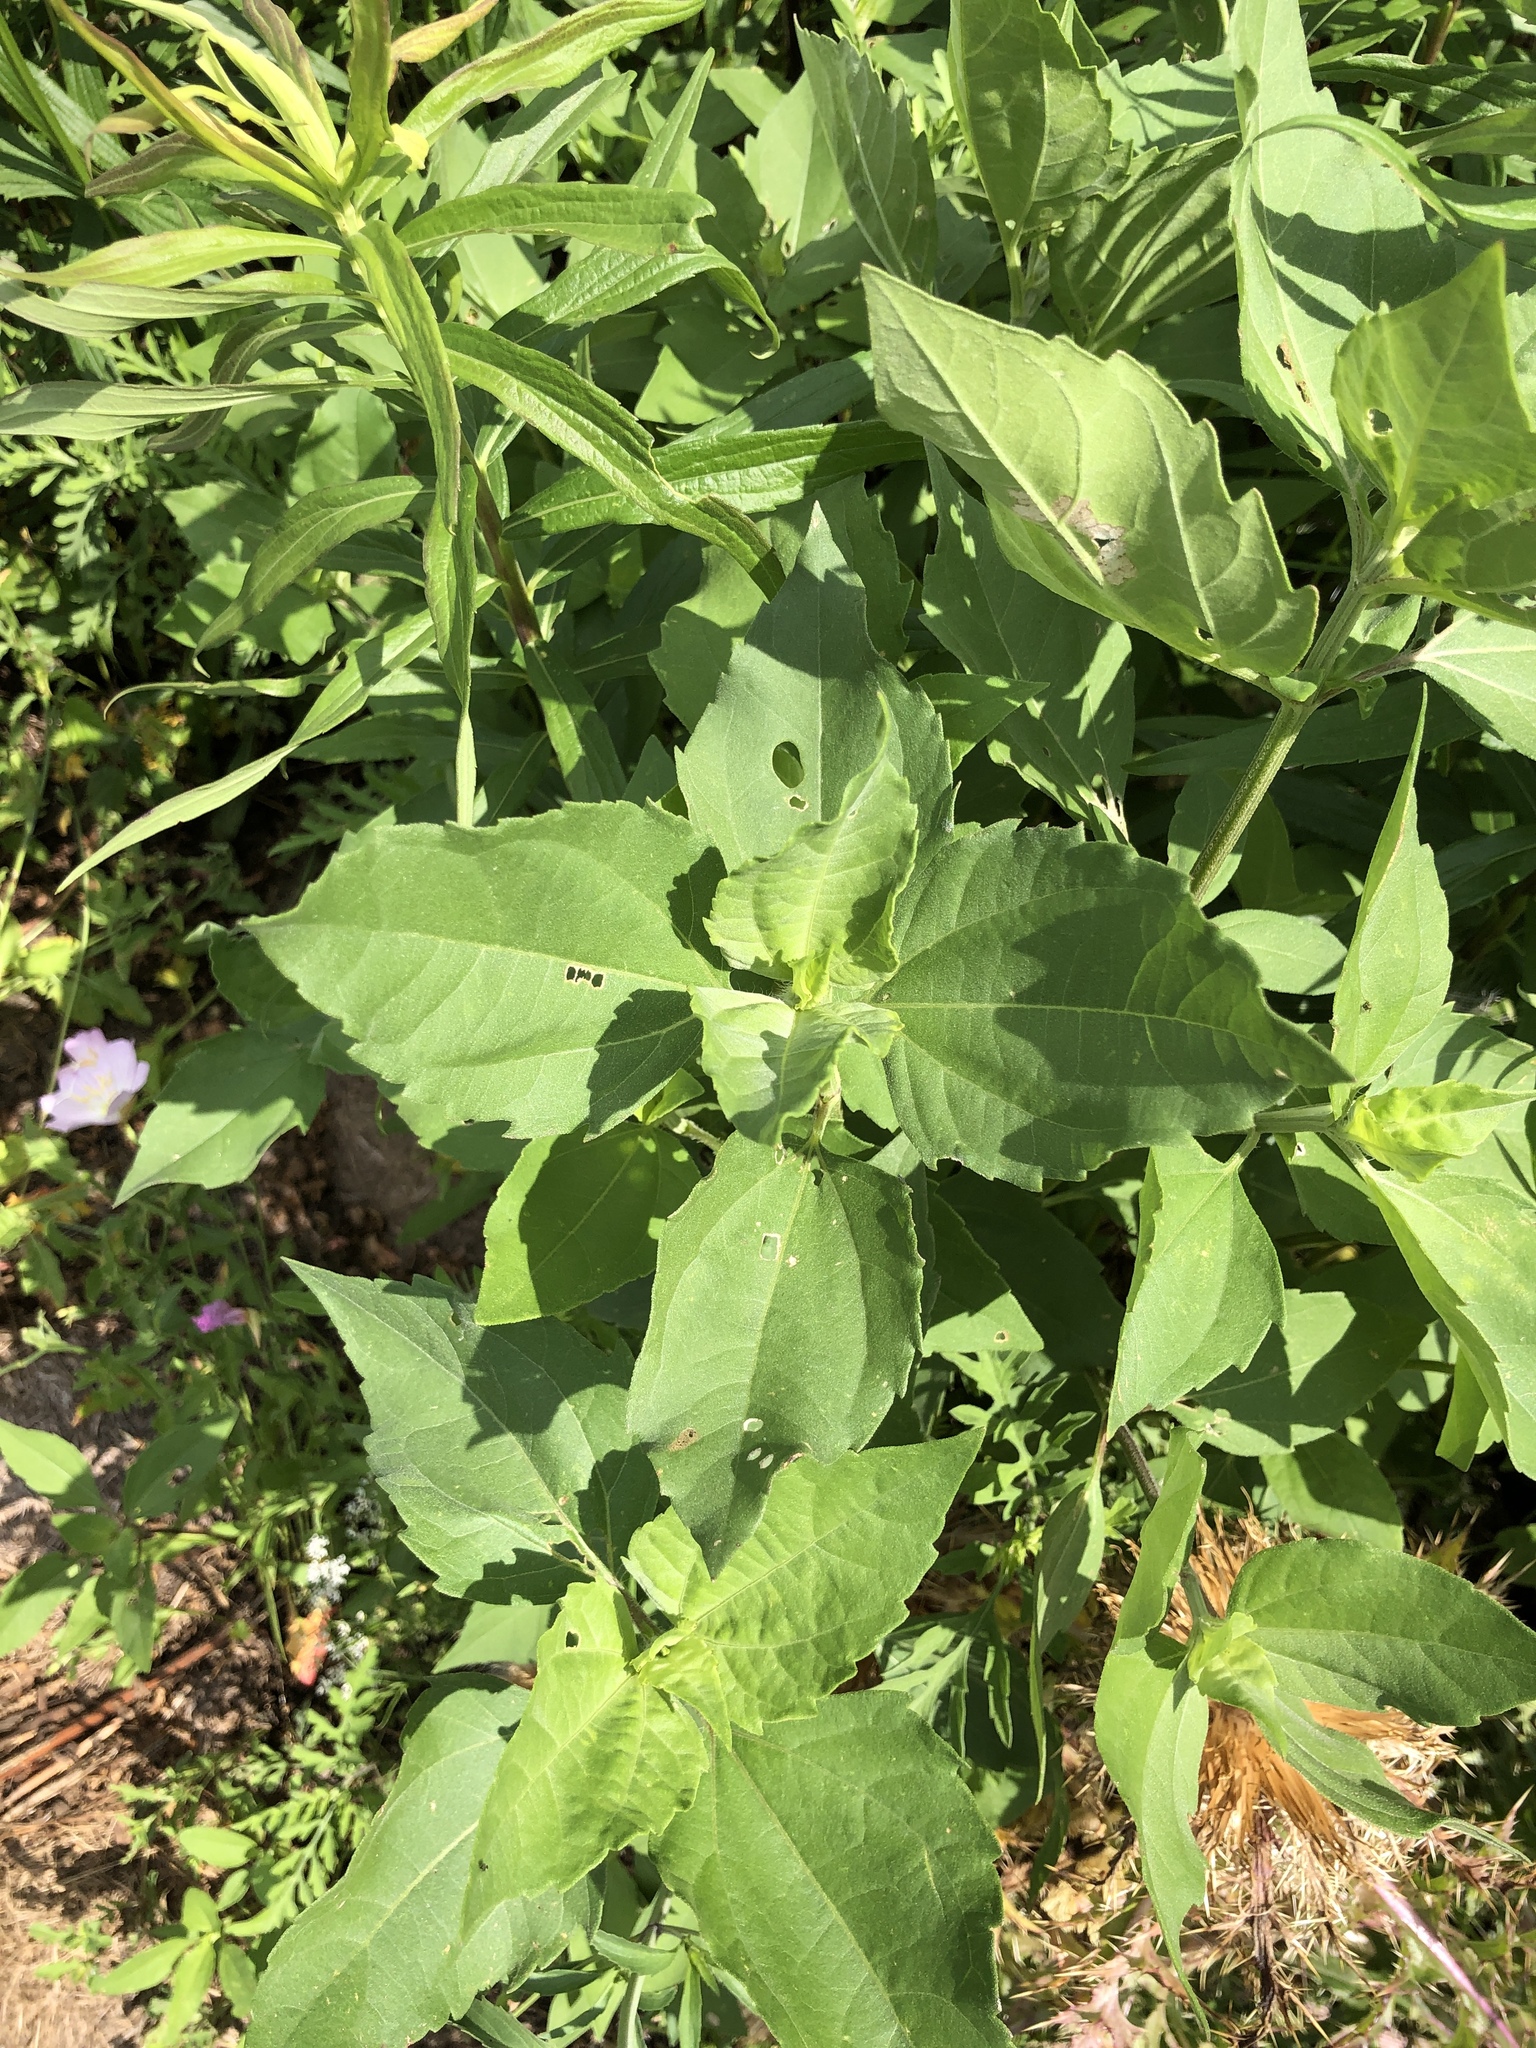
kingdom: Plantae
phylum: Tracheophyta
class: Magnoliopsida
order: Asterales
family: Asteraceae
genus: Iva
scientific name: Iva annua
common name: Marsh-elder
